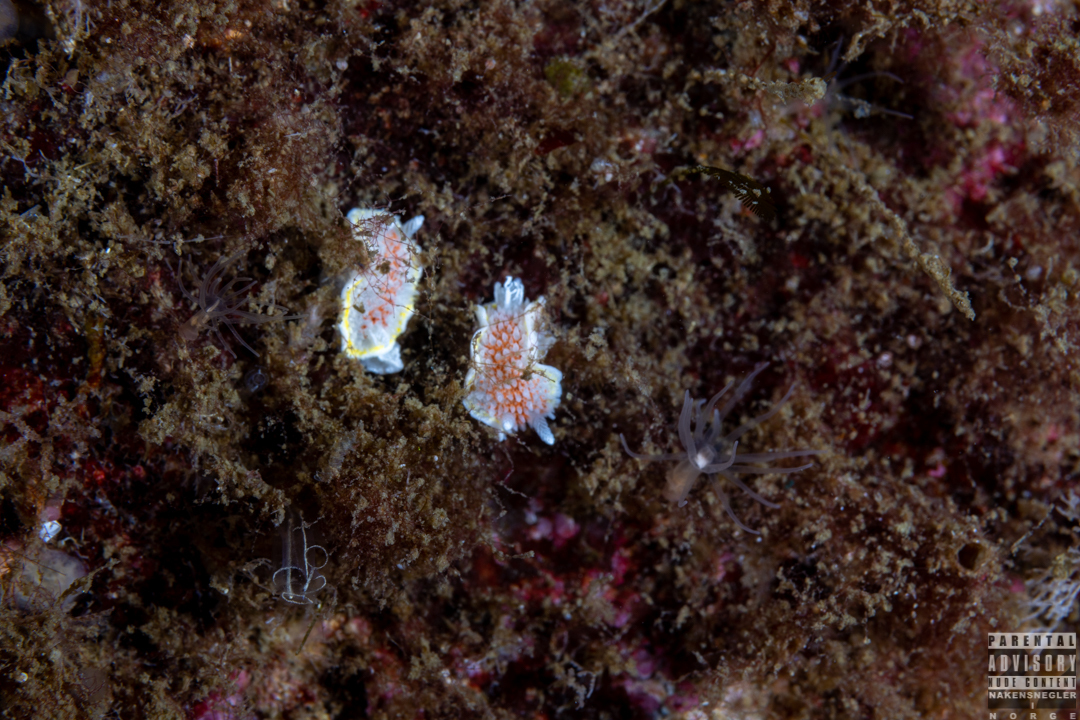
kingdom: Animalia
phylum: Mollusca
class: Gastropoda
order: Nudibranchia
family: Calycidorididae
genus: Diaphorodoris
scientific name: Diaphorodoris luteocincta
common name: Fried egg nudibranch
